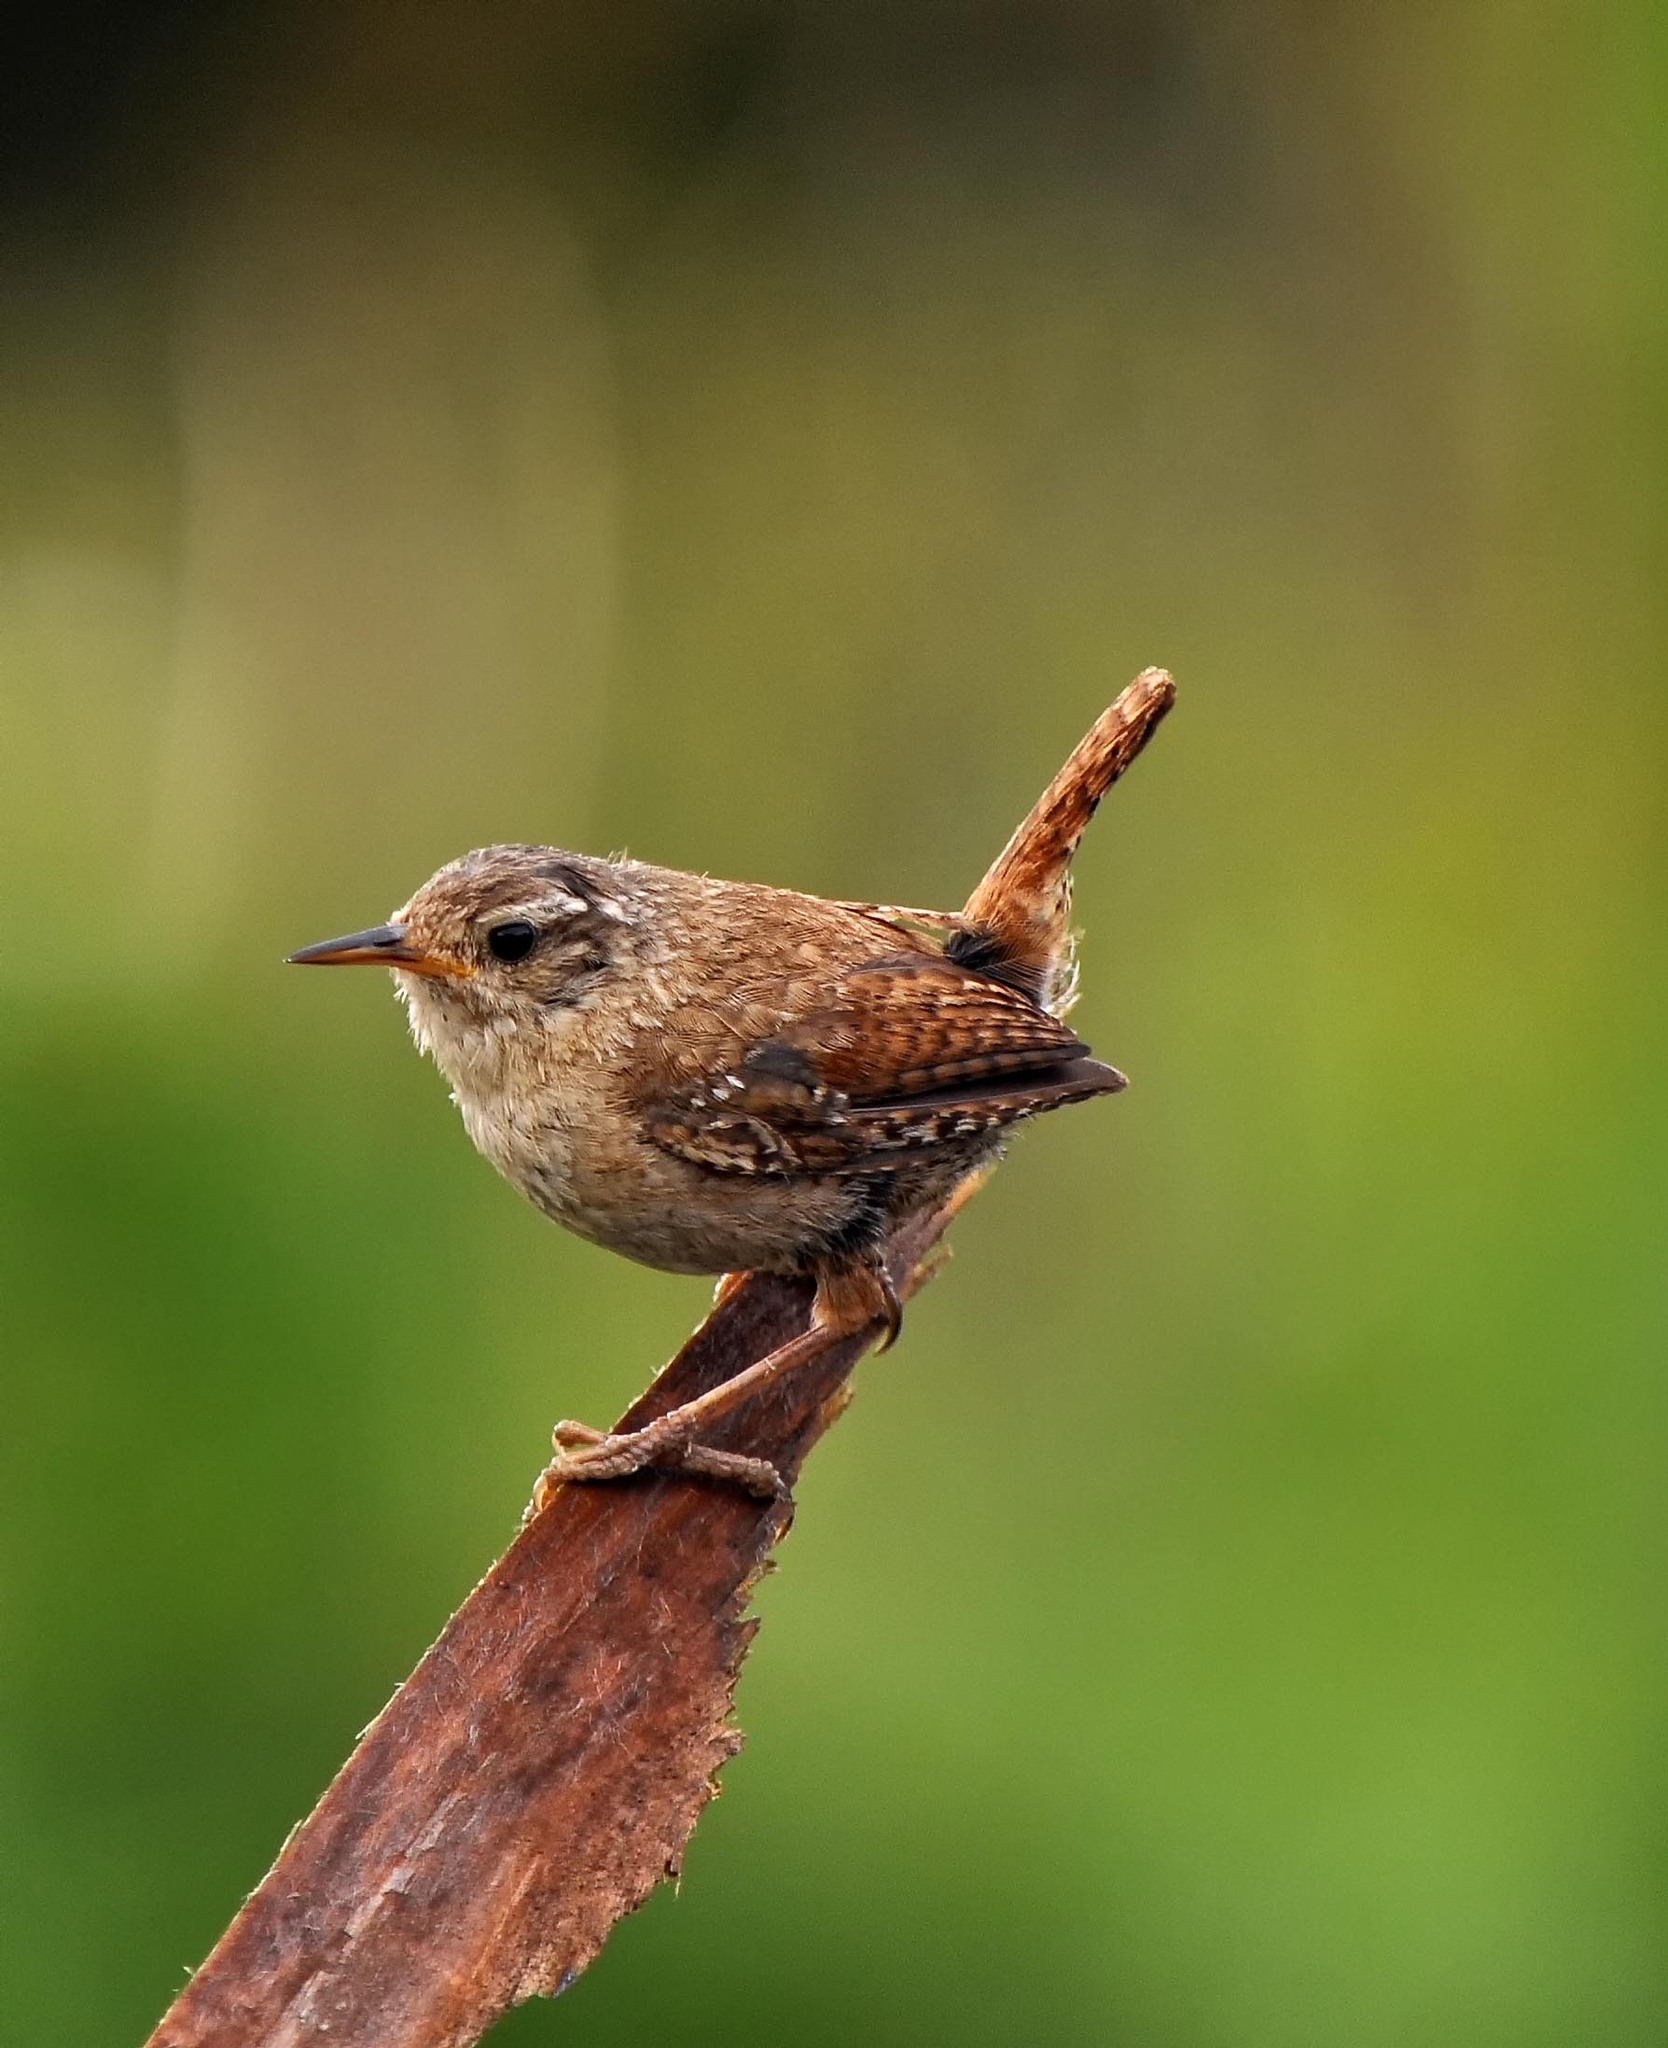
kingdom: Animalia
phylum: Chordata
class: Aves
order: Passeriformes
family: Troglodytidae
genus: Troglodytes
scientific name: Troglodytes troglodytes
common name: Eurasian wren
